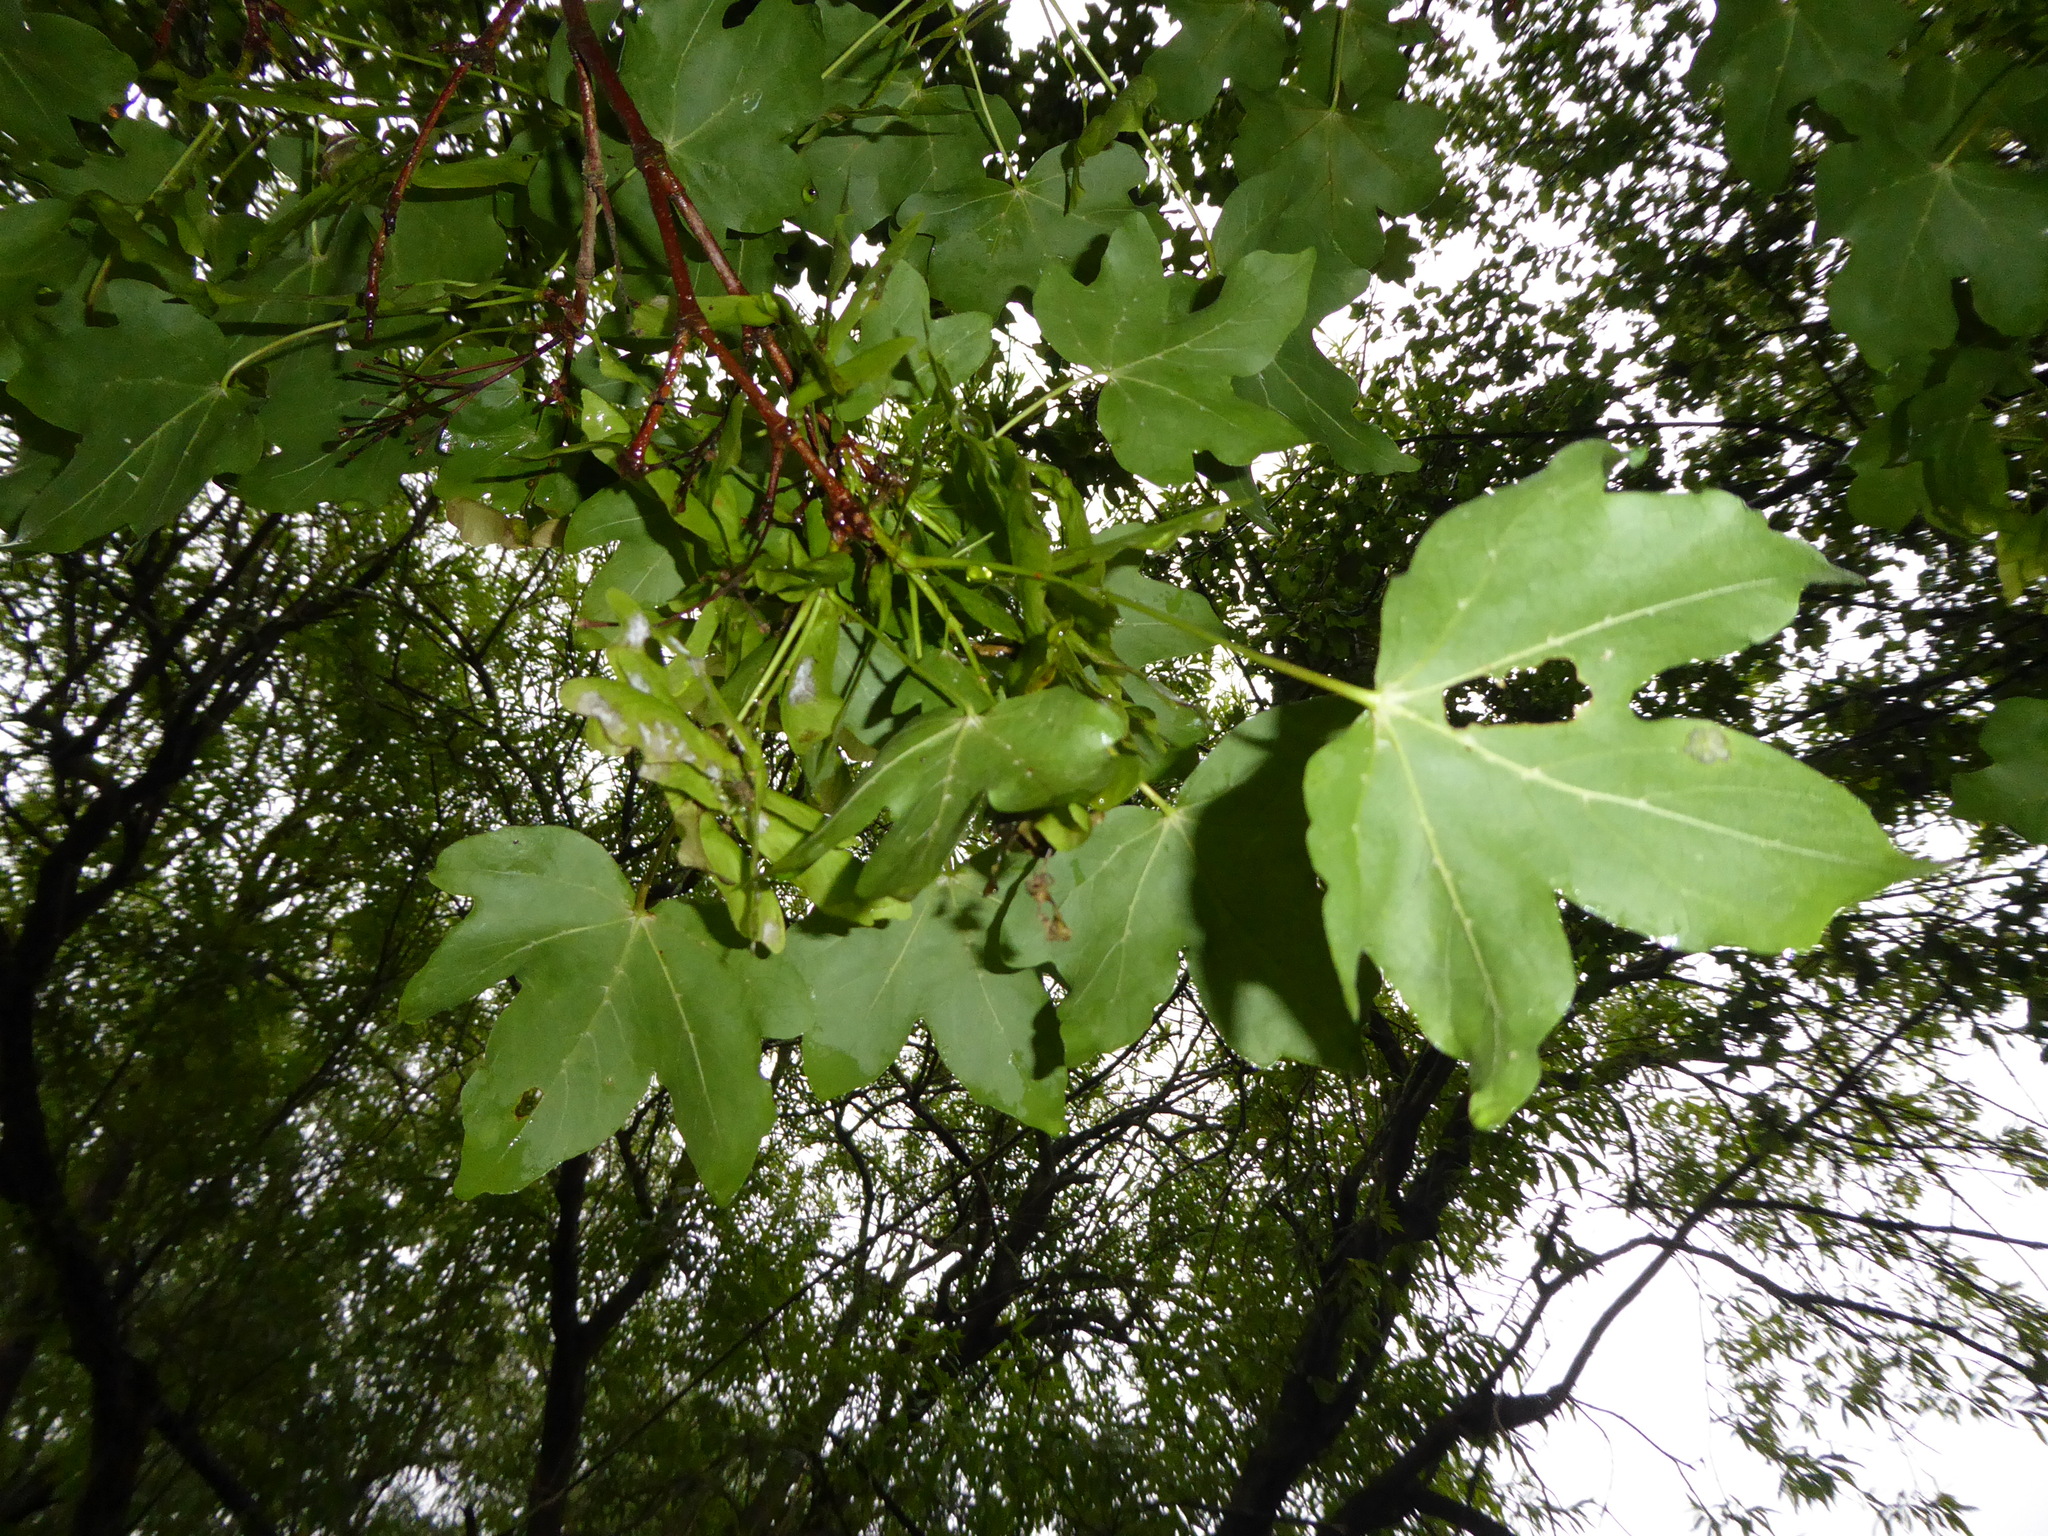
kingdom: Plantae
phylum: Tracheophyta
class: Magnoliopsida
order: Sapindales
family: Sapindaceae
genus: Acer
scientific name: Acer campestre
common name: Field maple
